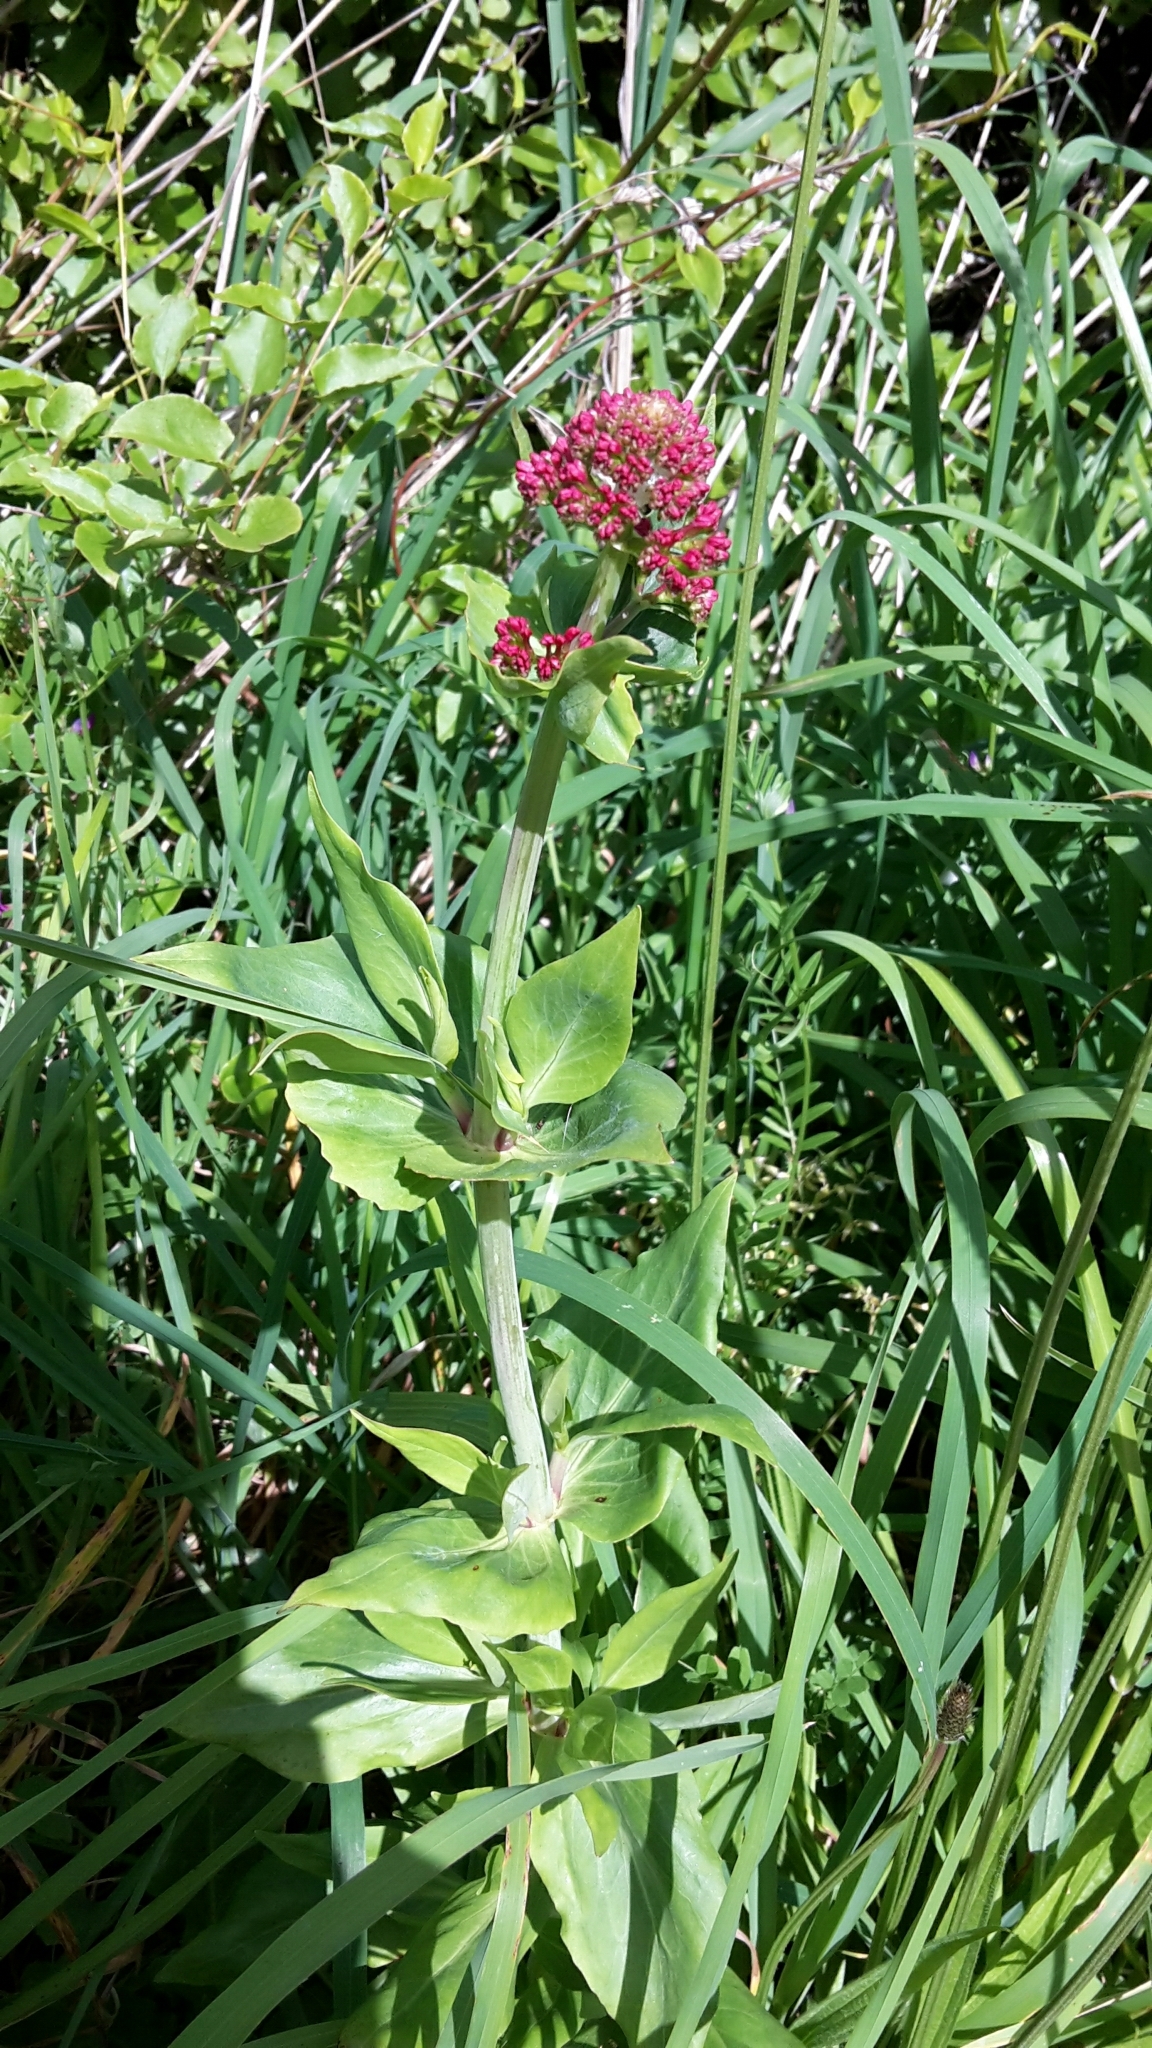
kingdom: Plantae
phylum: Tracheophyta
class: Magnoliopsida
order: Dipsacales
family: Caprifoliaceae
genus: Centranthus
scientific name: Centranthus ruber
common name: Red valerian
